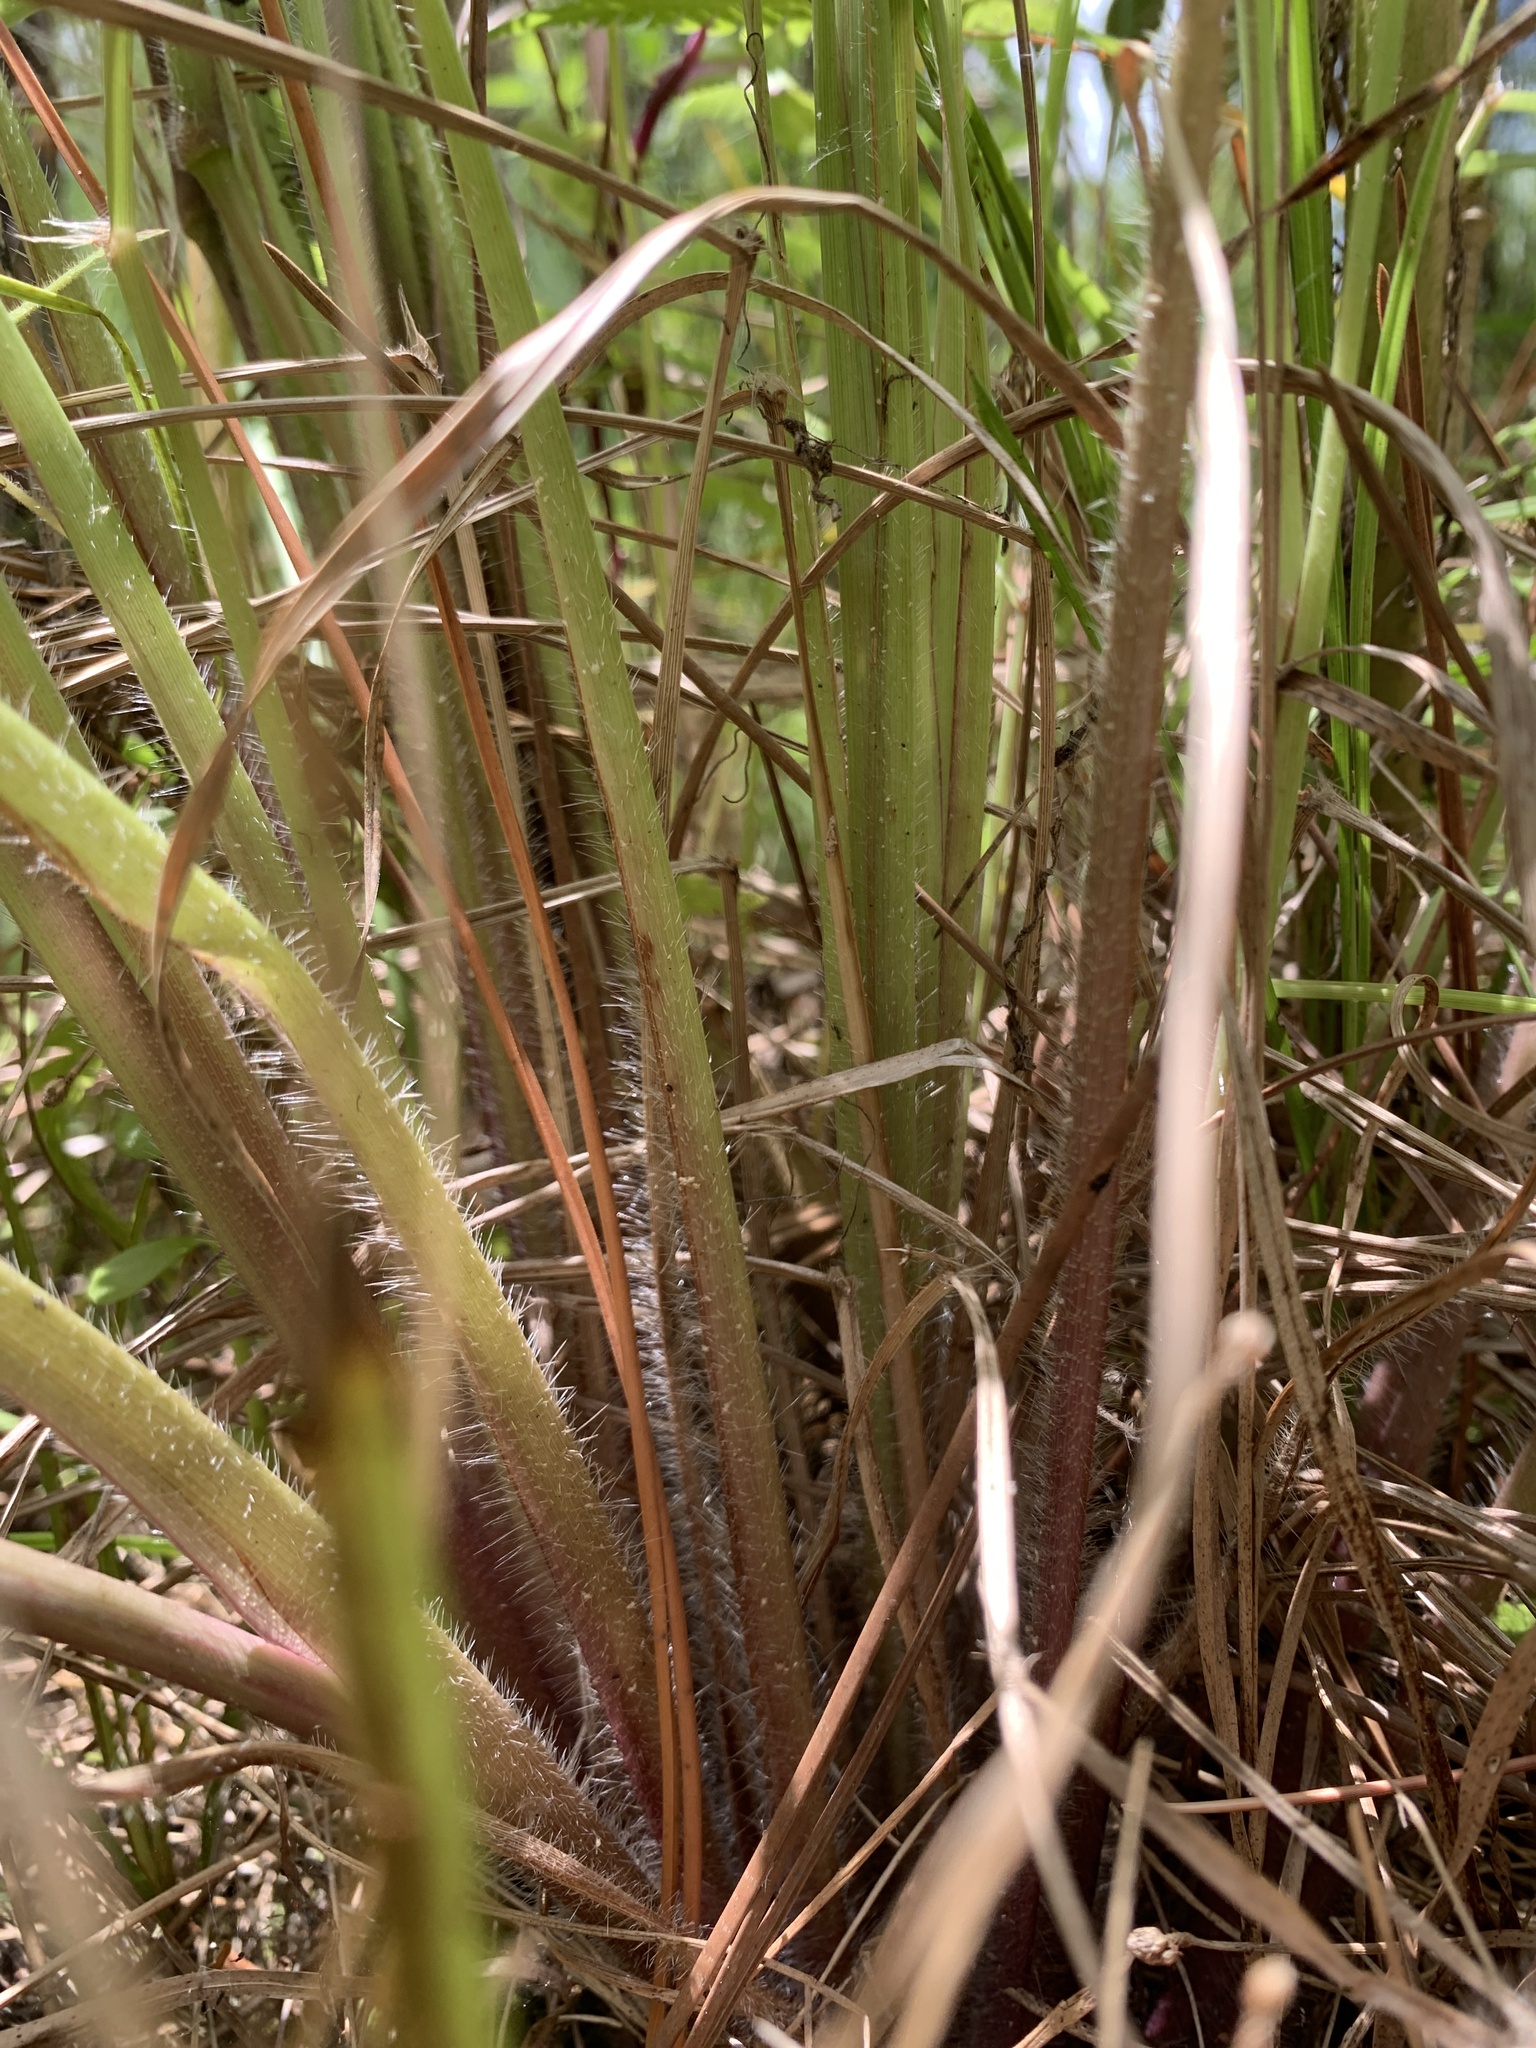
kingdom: Plantae
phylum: Tracheophyta
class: Liliopsida
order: Poales
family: Poaceae
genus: Paspalum
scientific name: Paspalum urvillei
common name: Vasey's grass
